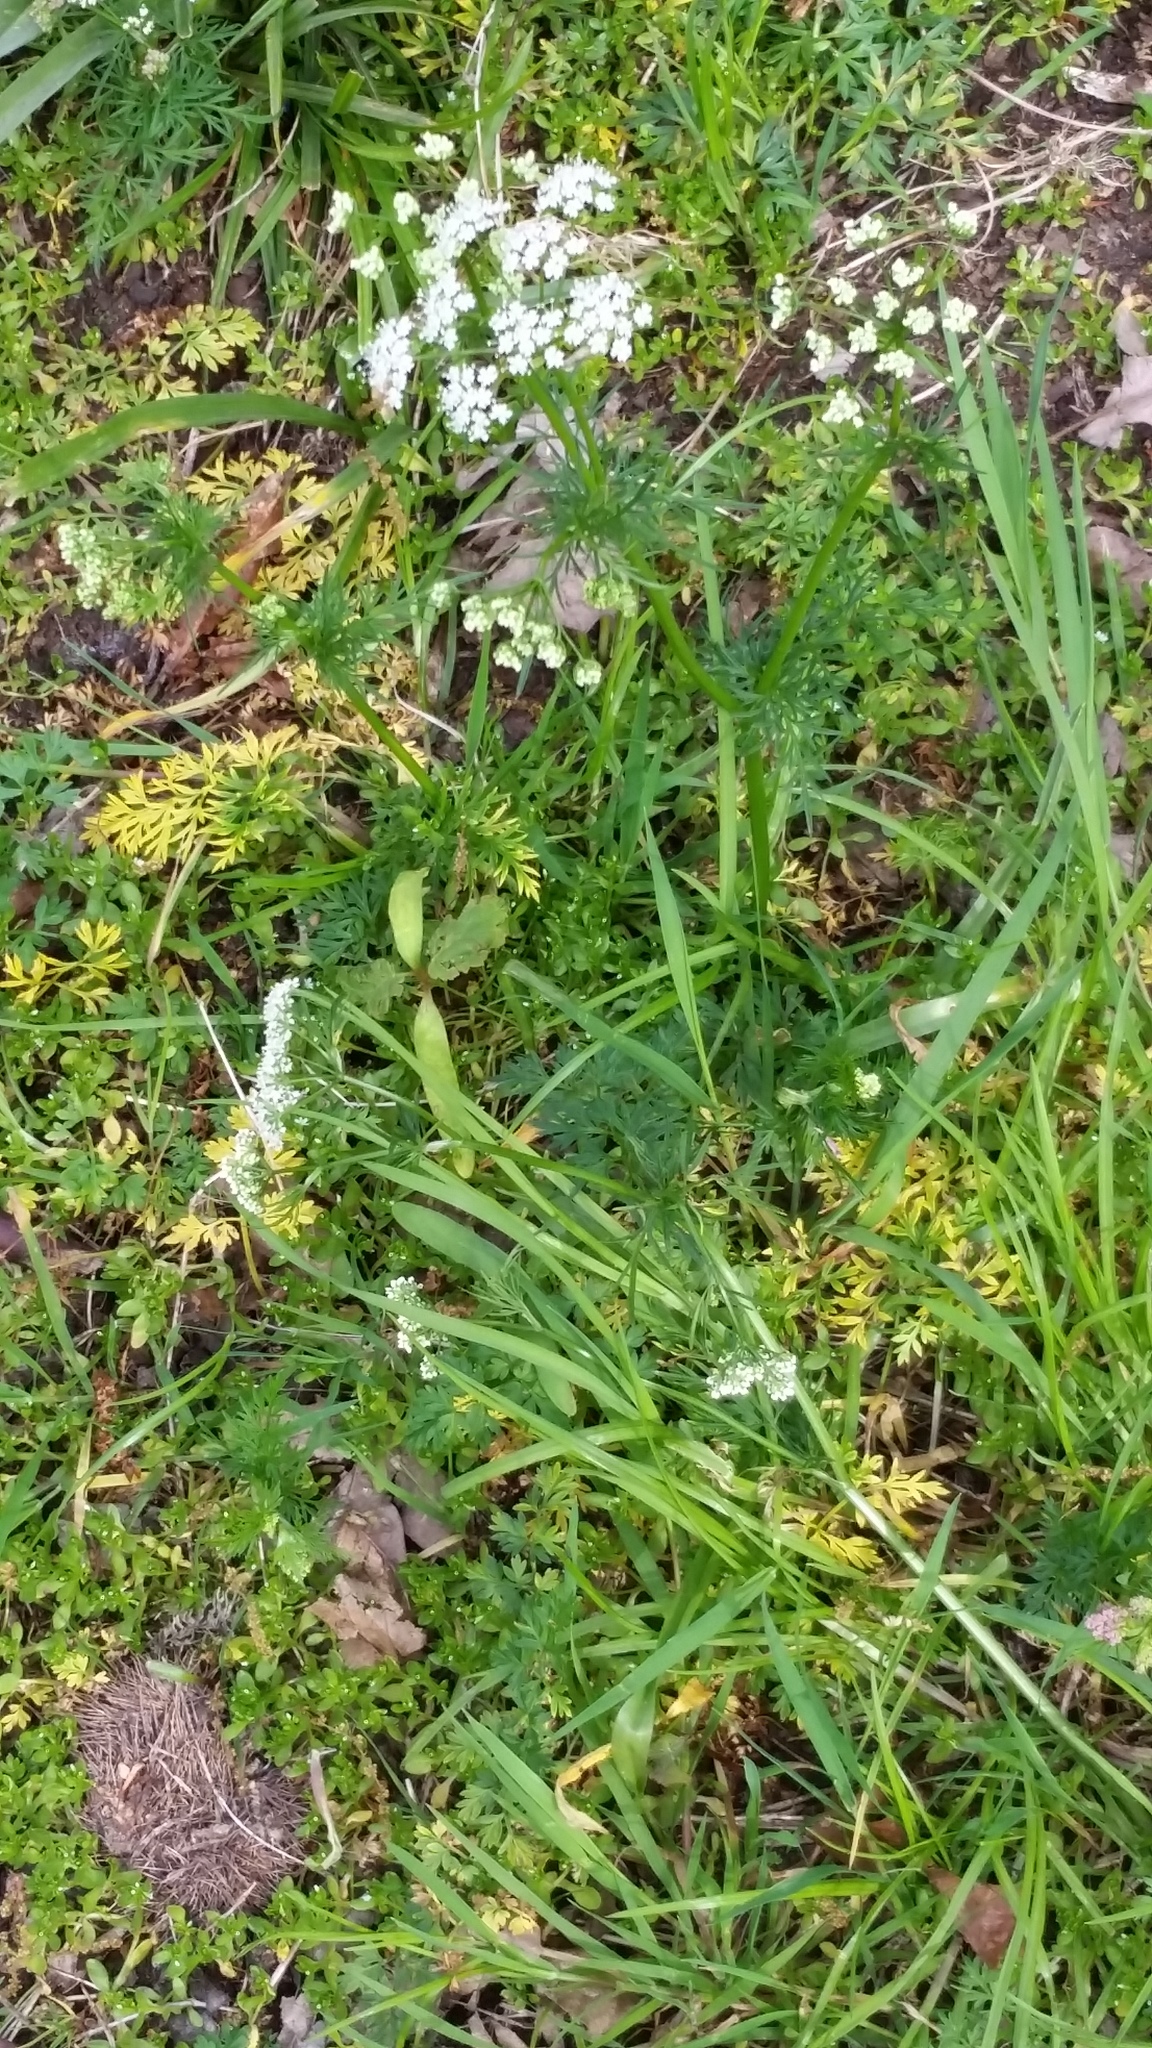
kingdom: Plantae
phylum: Tracheophyta
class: Magnoliopsida
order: Apiales
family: Apiaceae
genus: Conopodium
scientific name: Conopodium majus
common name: Pignut
